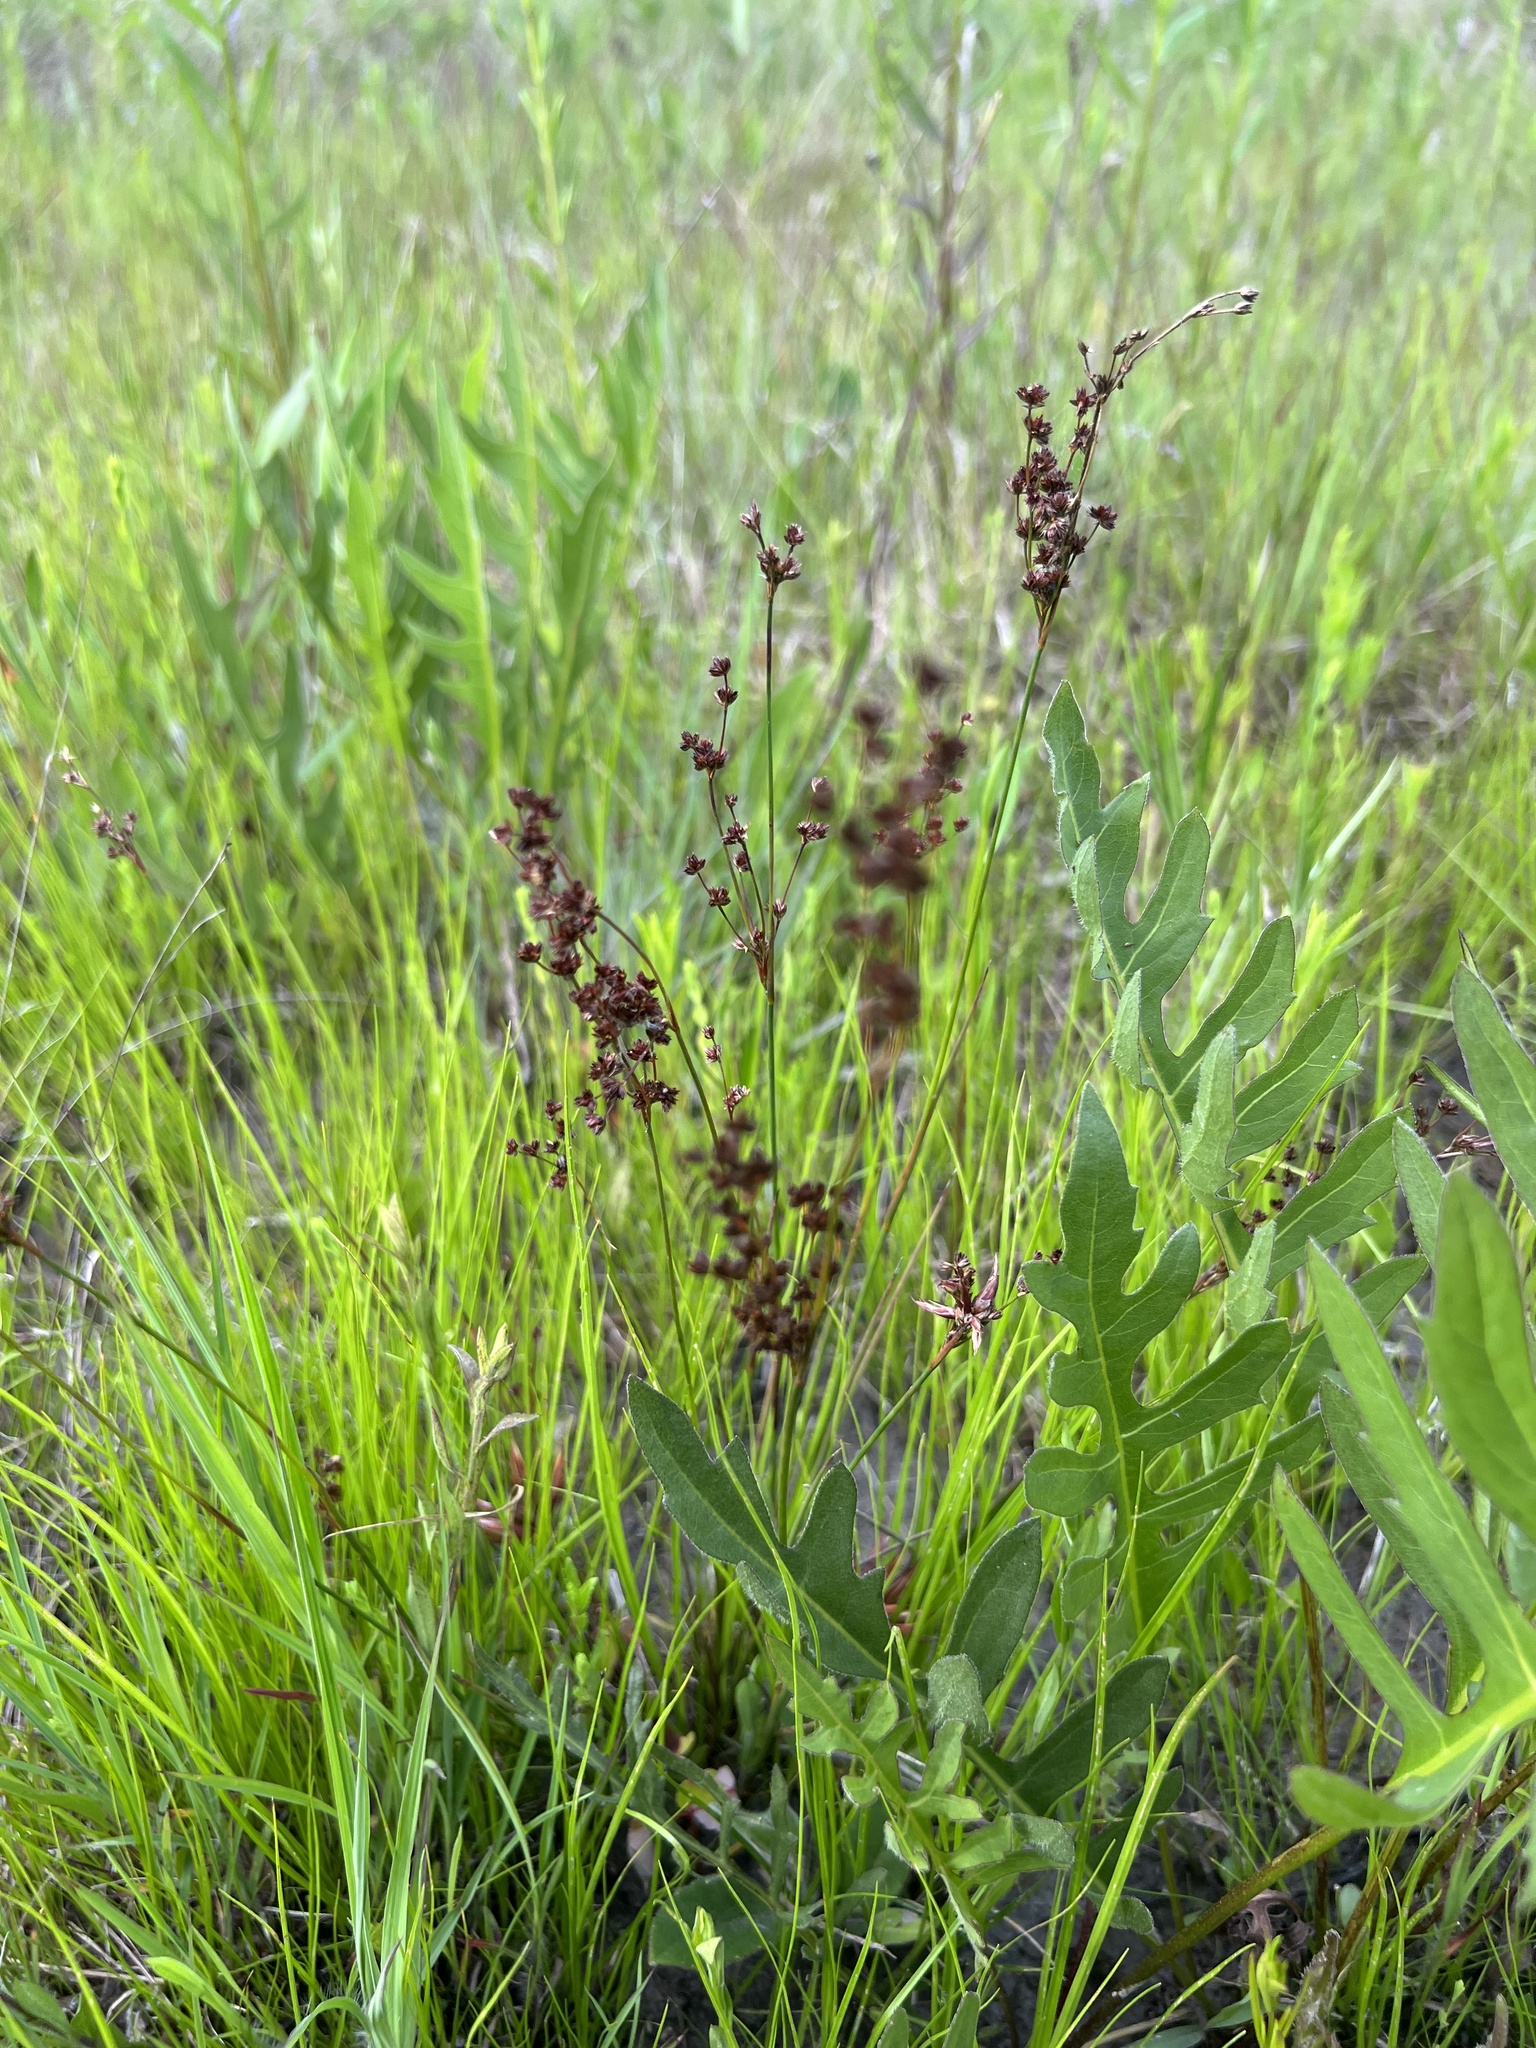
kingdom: Plantae
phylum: Tracheophyta
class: Liliopsida
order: Poales
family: Juncaceae
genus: Juncus
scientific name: Juncus acuminatus
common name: Knotty-leaved rush
